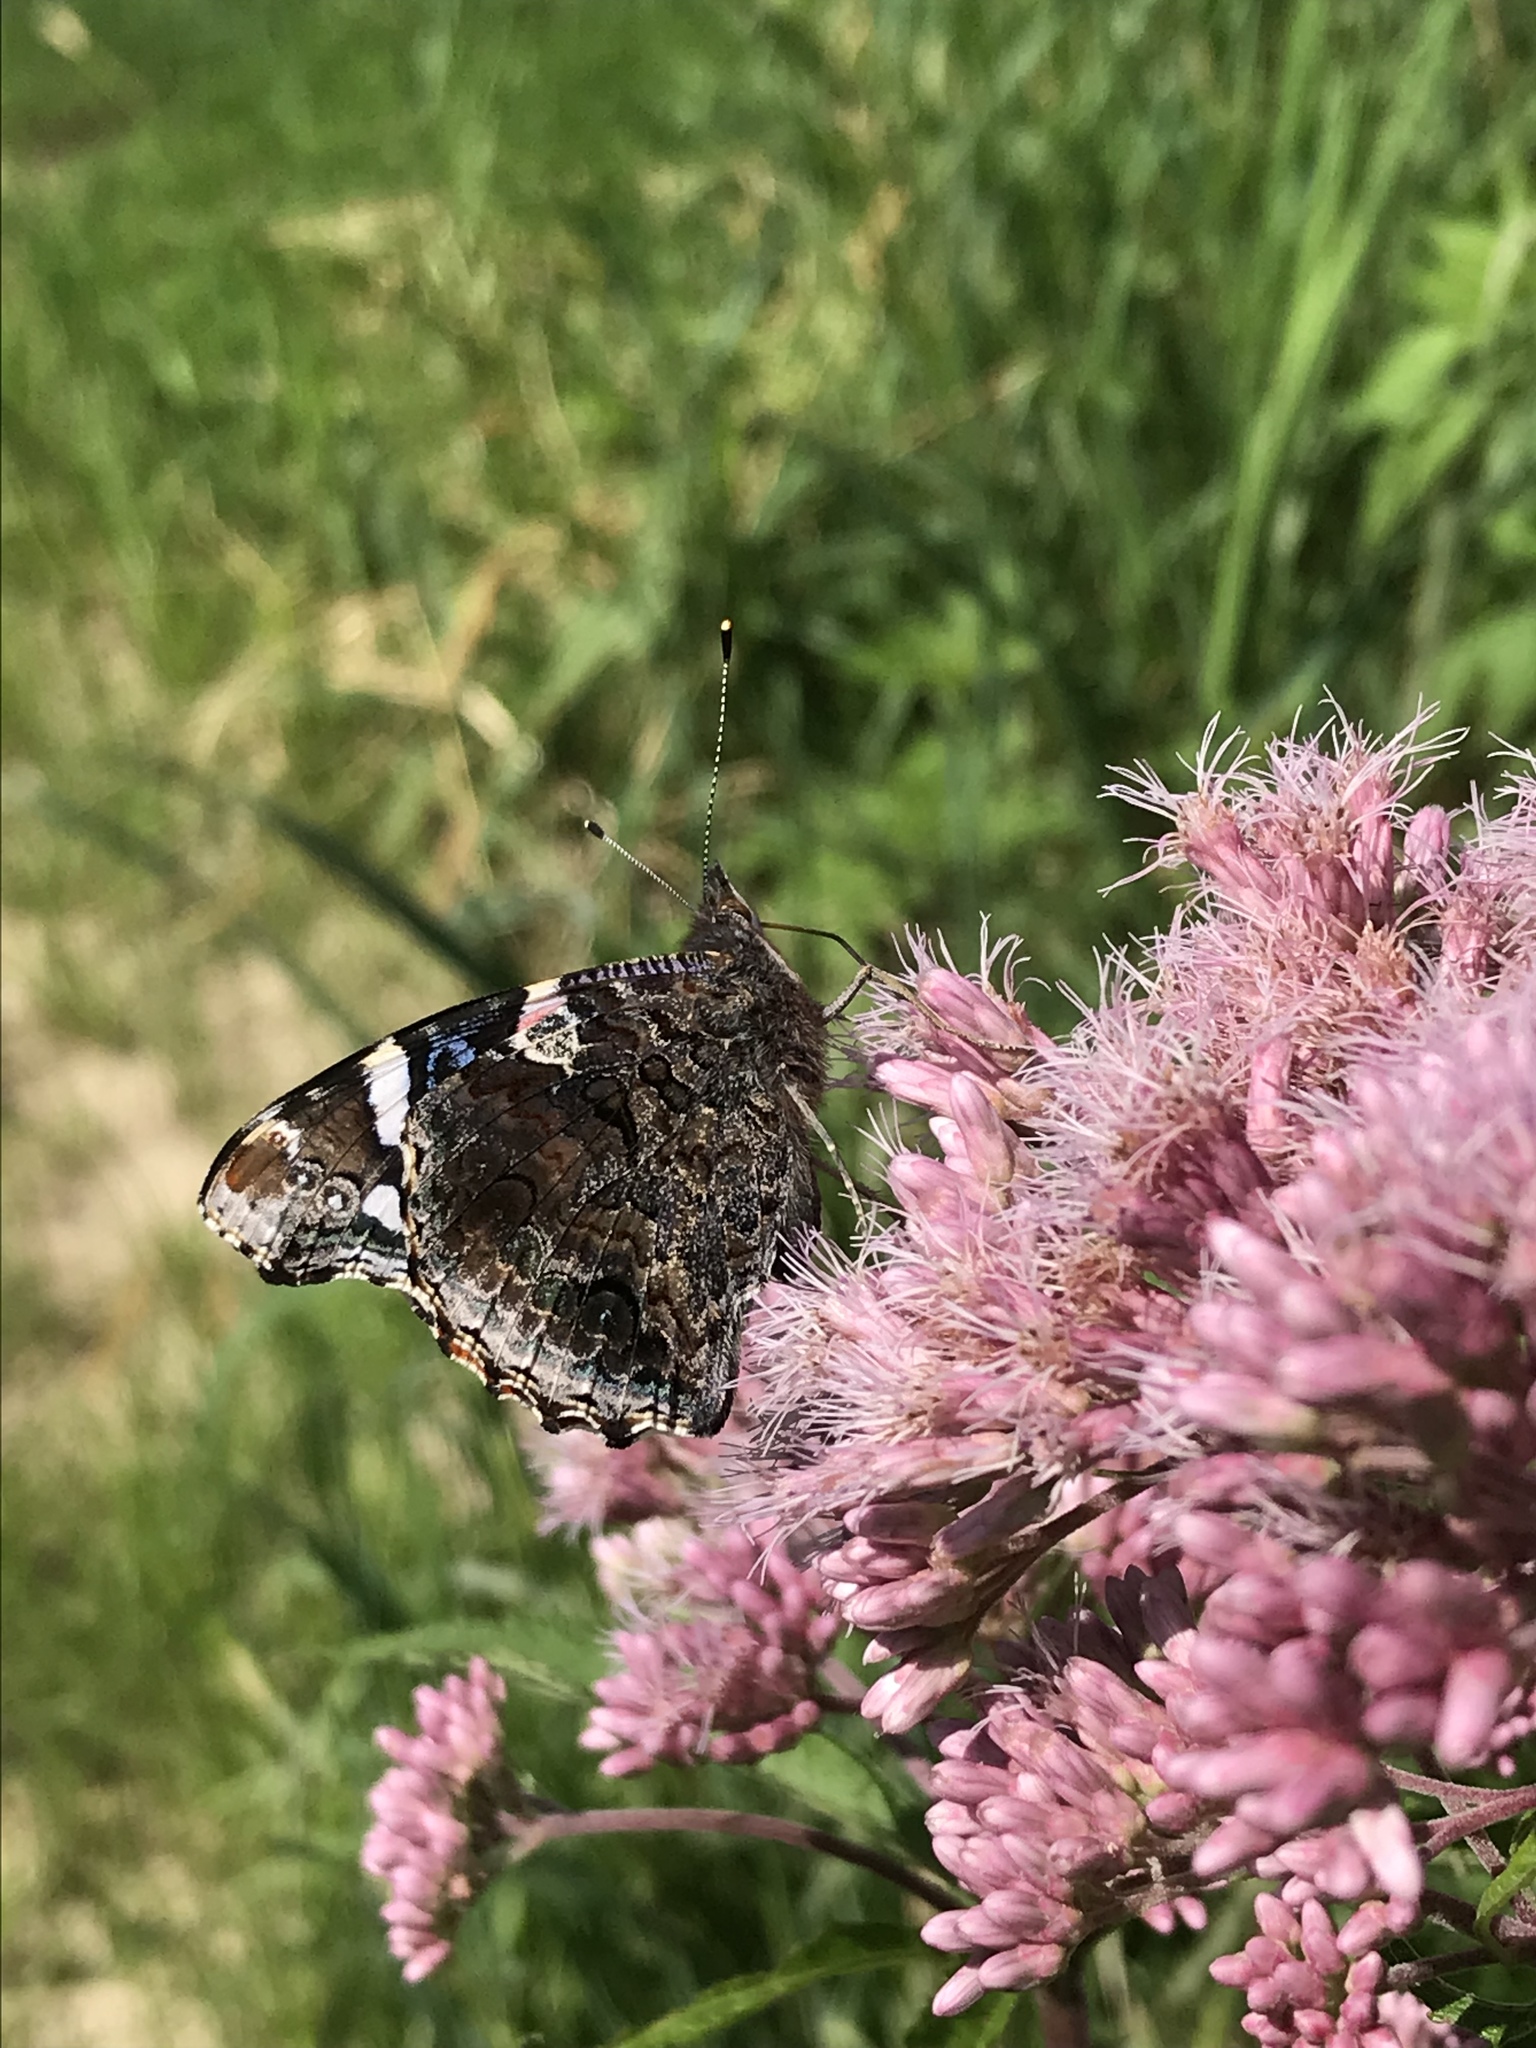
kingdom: Animalia
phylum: Arthropoda
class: Insecta
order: Lepidoptera
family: Nymphalidae
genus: Vanessa
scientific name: Vanessa atalanta
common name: Red admiral
